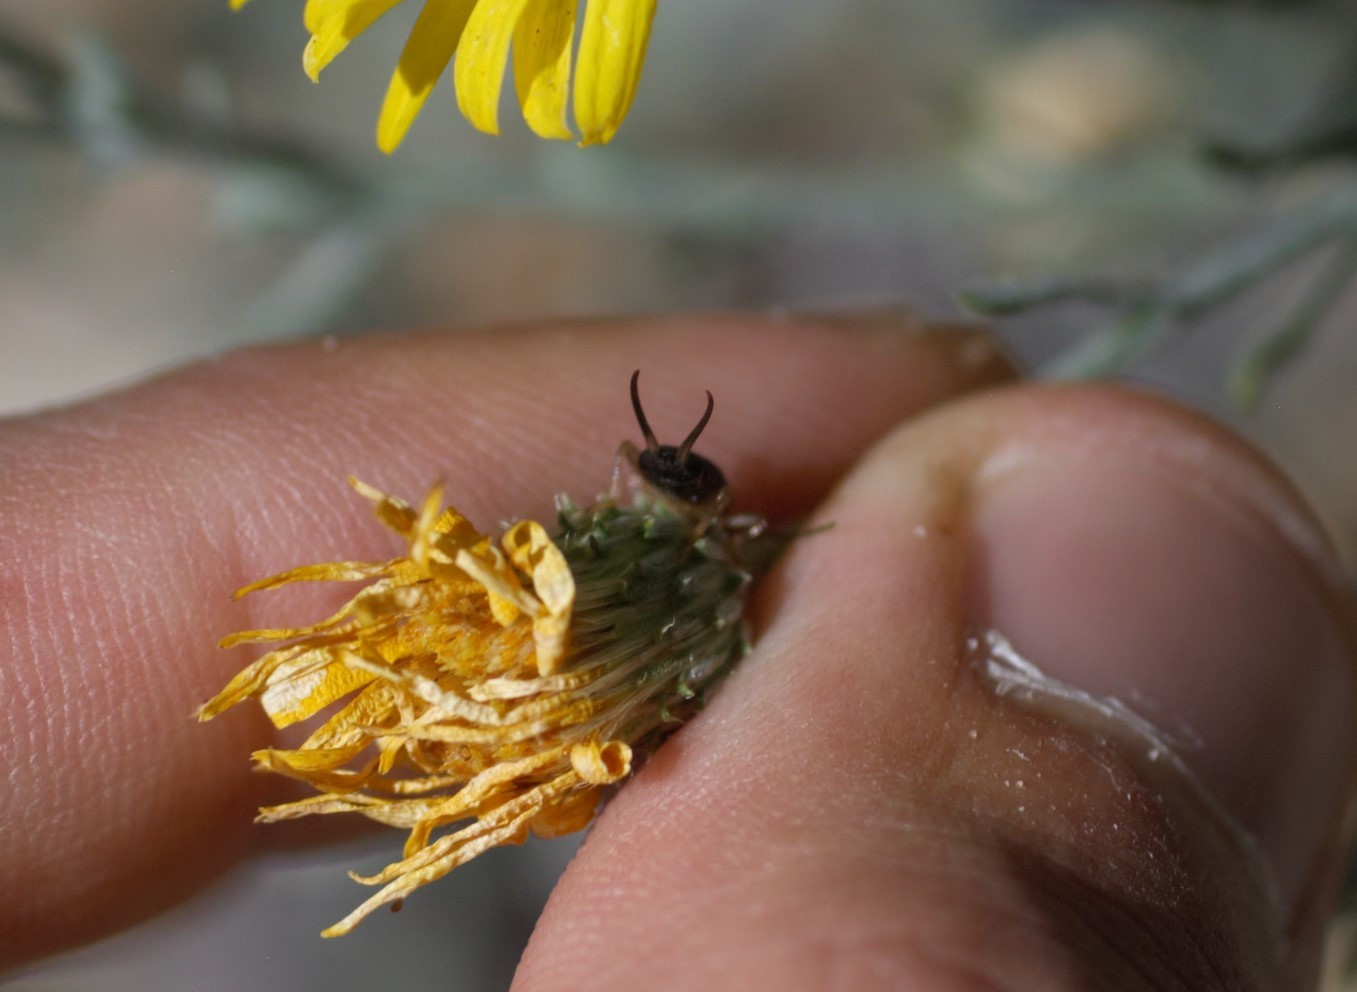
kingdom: Animalia
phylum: Arthropoda
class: Insecta
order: Dermaptera
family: Forficulidae
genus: Forficula
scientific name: Forficula
